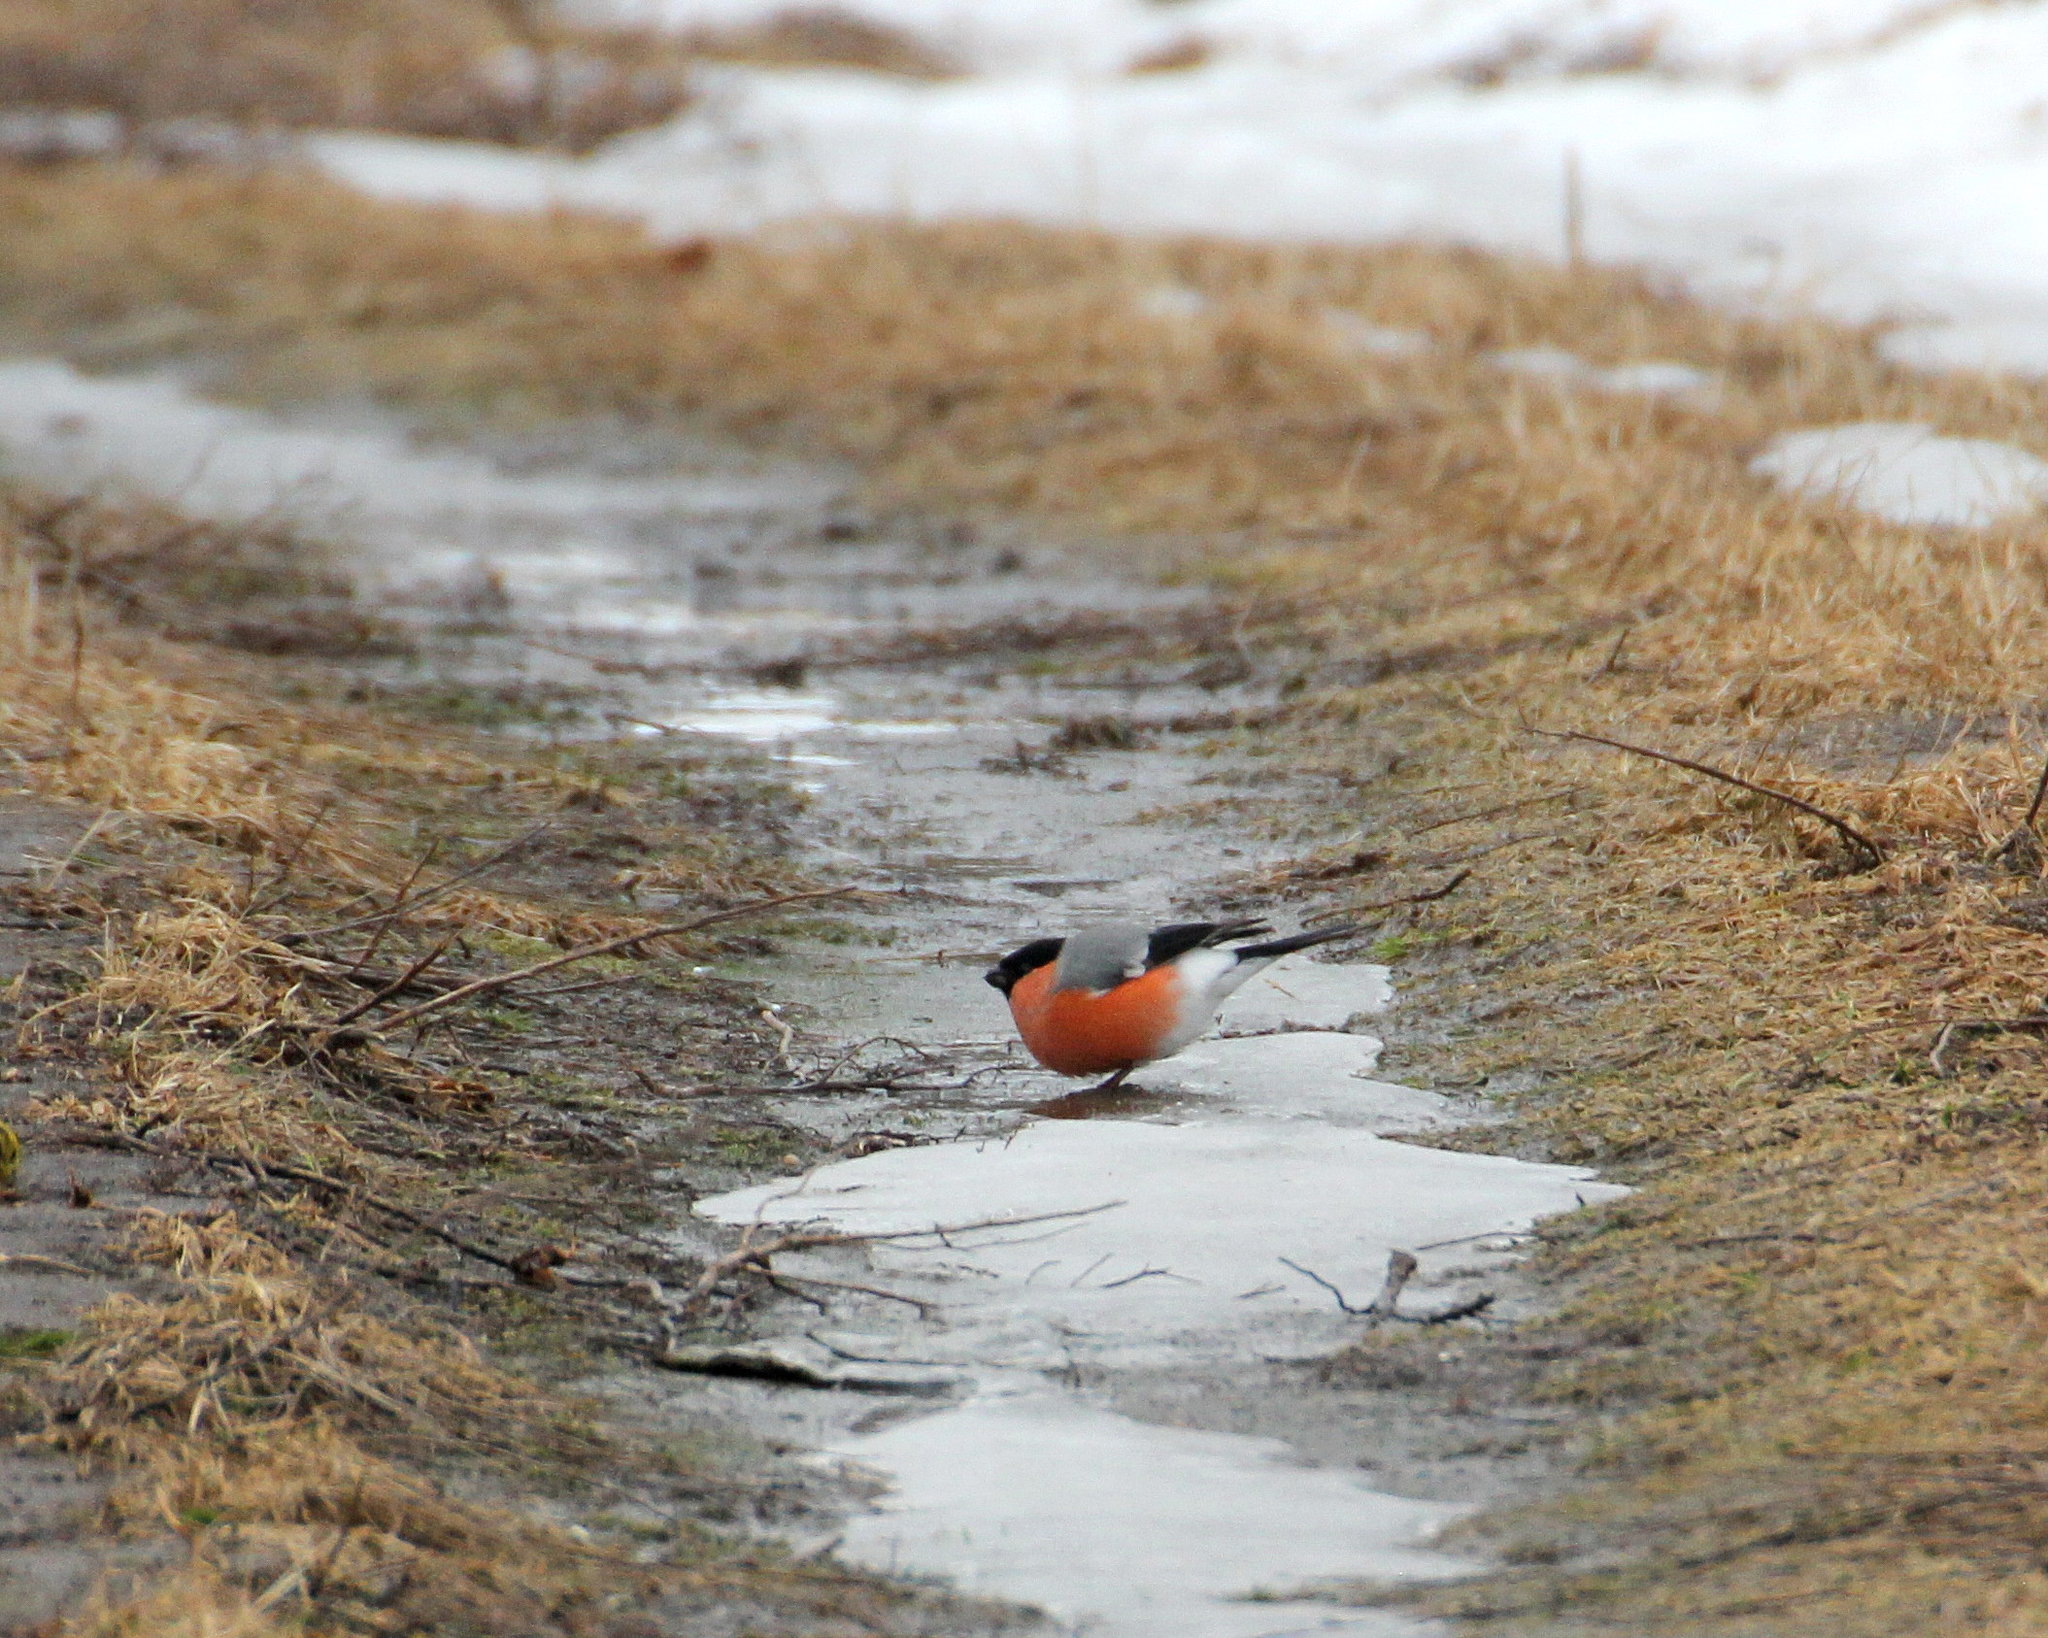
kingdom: Animalia
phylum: Chordata
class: Aves
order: Passeriformes
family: Fringillidae
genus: Pyrrhula
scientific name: Pyrrhula pyrrhula
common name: Eurasian bullfinch
